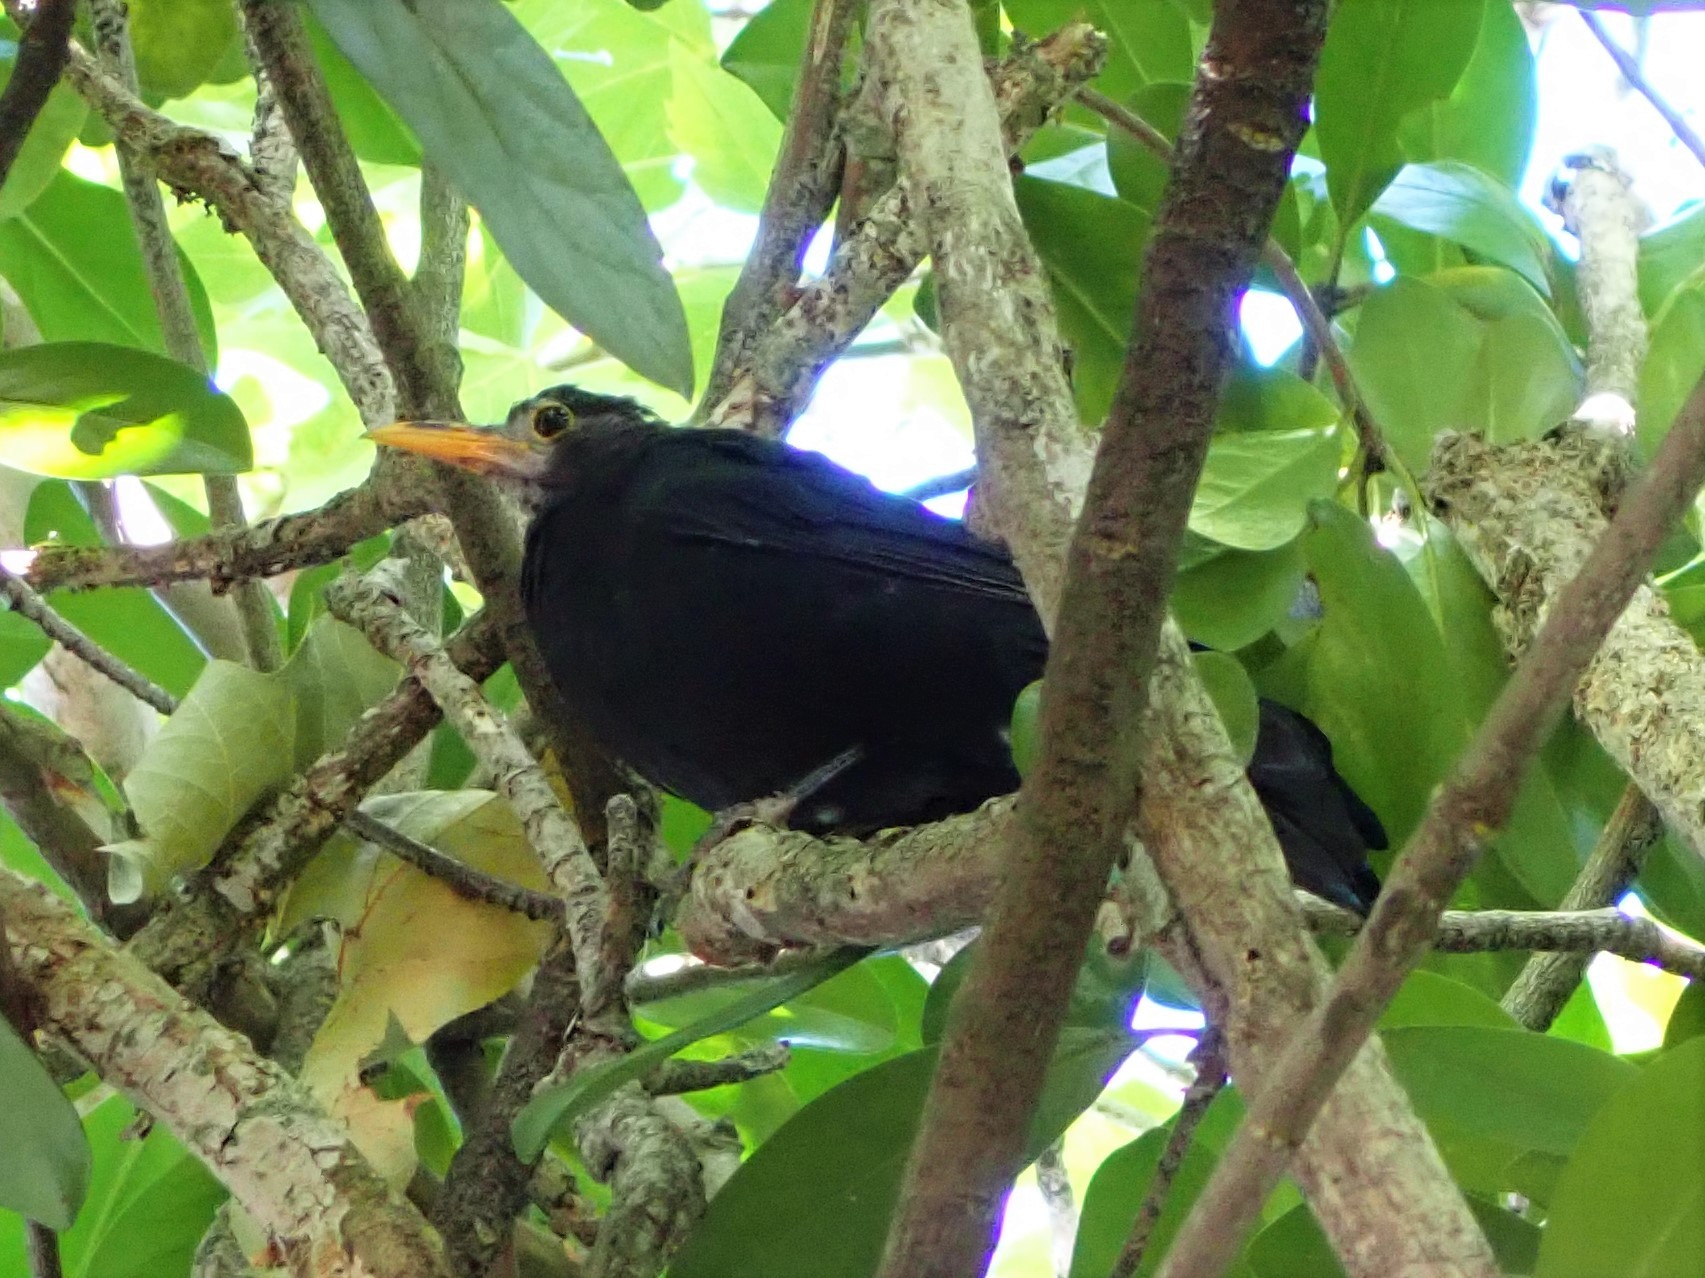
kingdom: Animalia
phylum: Chordata
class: Aves
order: Passeriformes
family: Turdidae
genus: Turdus
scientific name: Turdus merula
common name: Common blackbird
